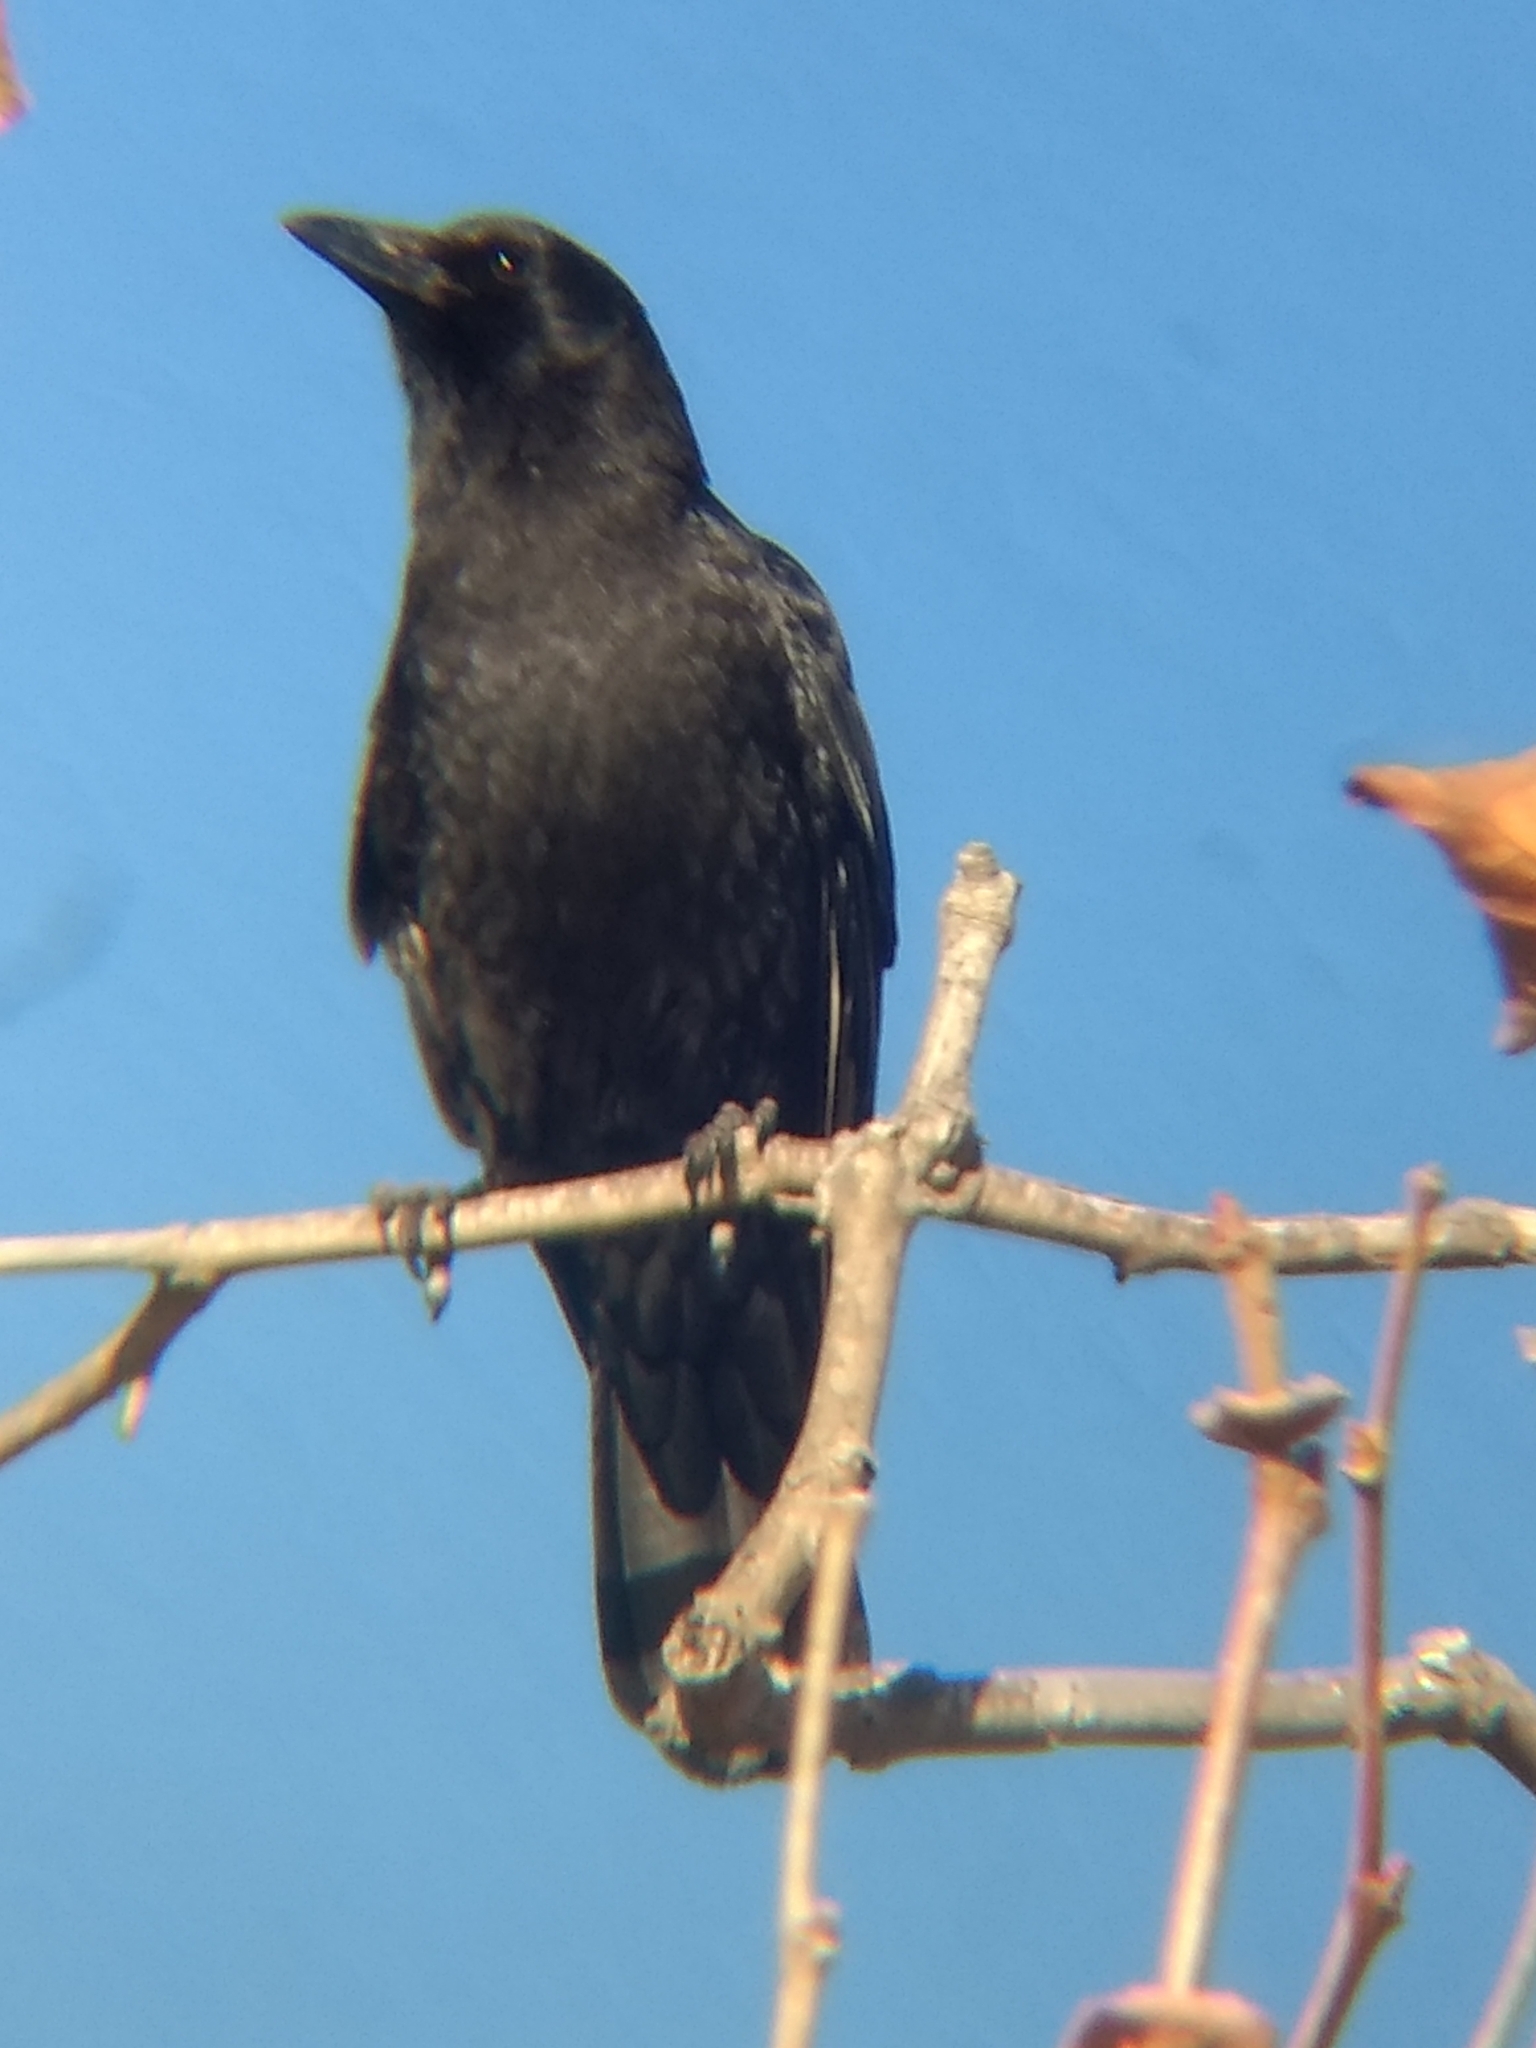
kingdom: Animalia
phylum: Chordata
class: Aves
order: Passeriformes
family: Corvidae
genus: Corvus
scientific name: Corvus brachyrhynchos
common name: American crow
